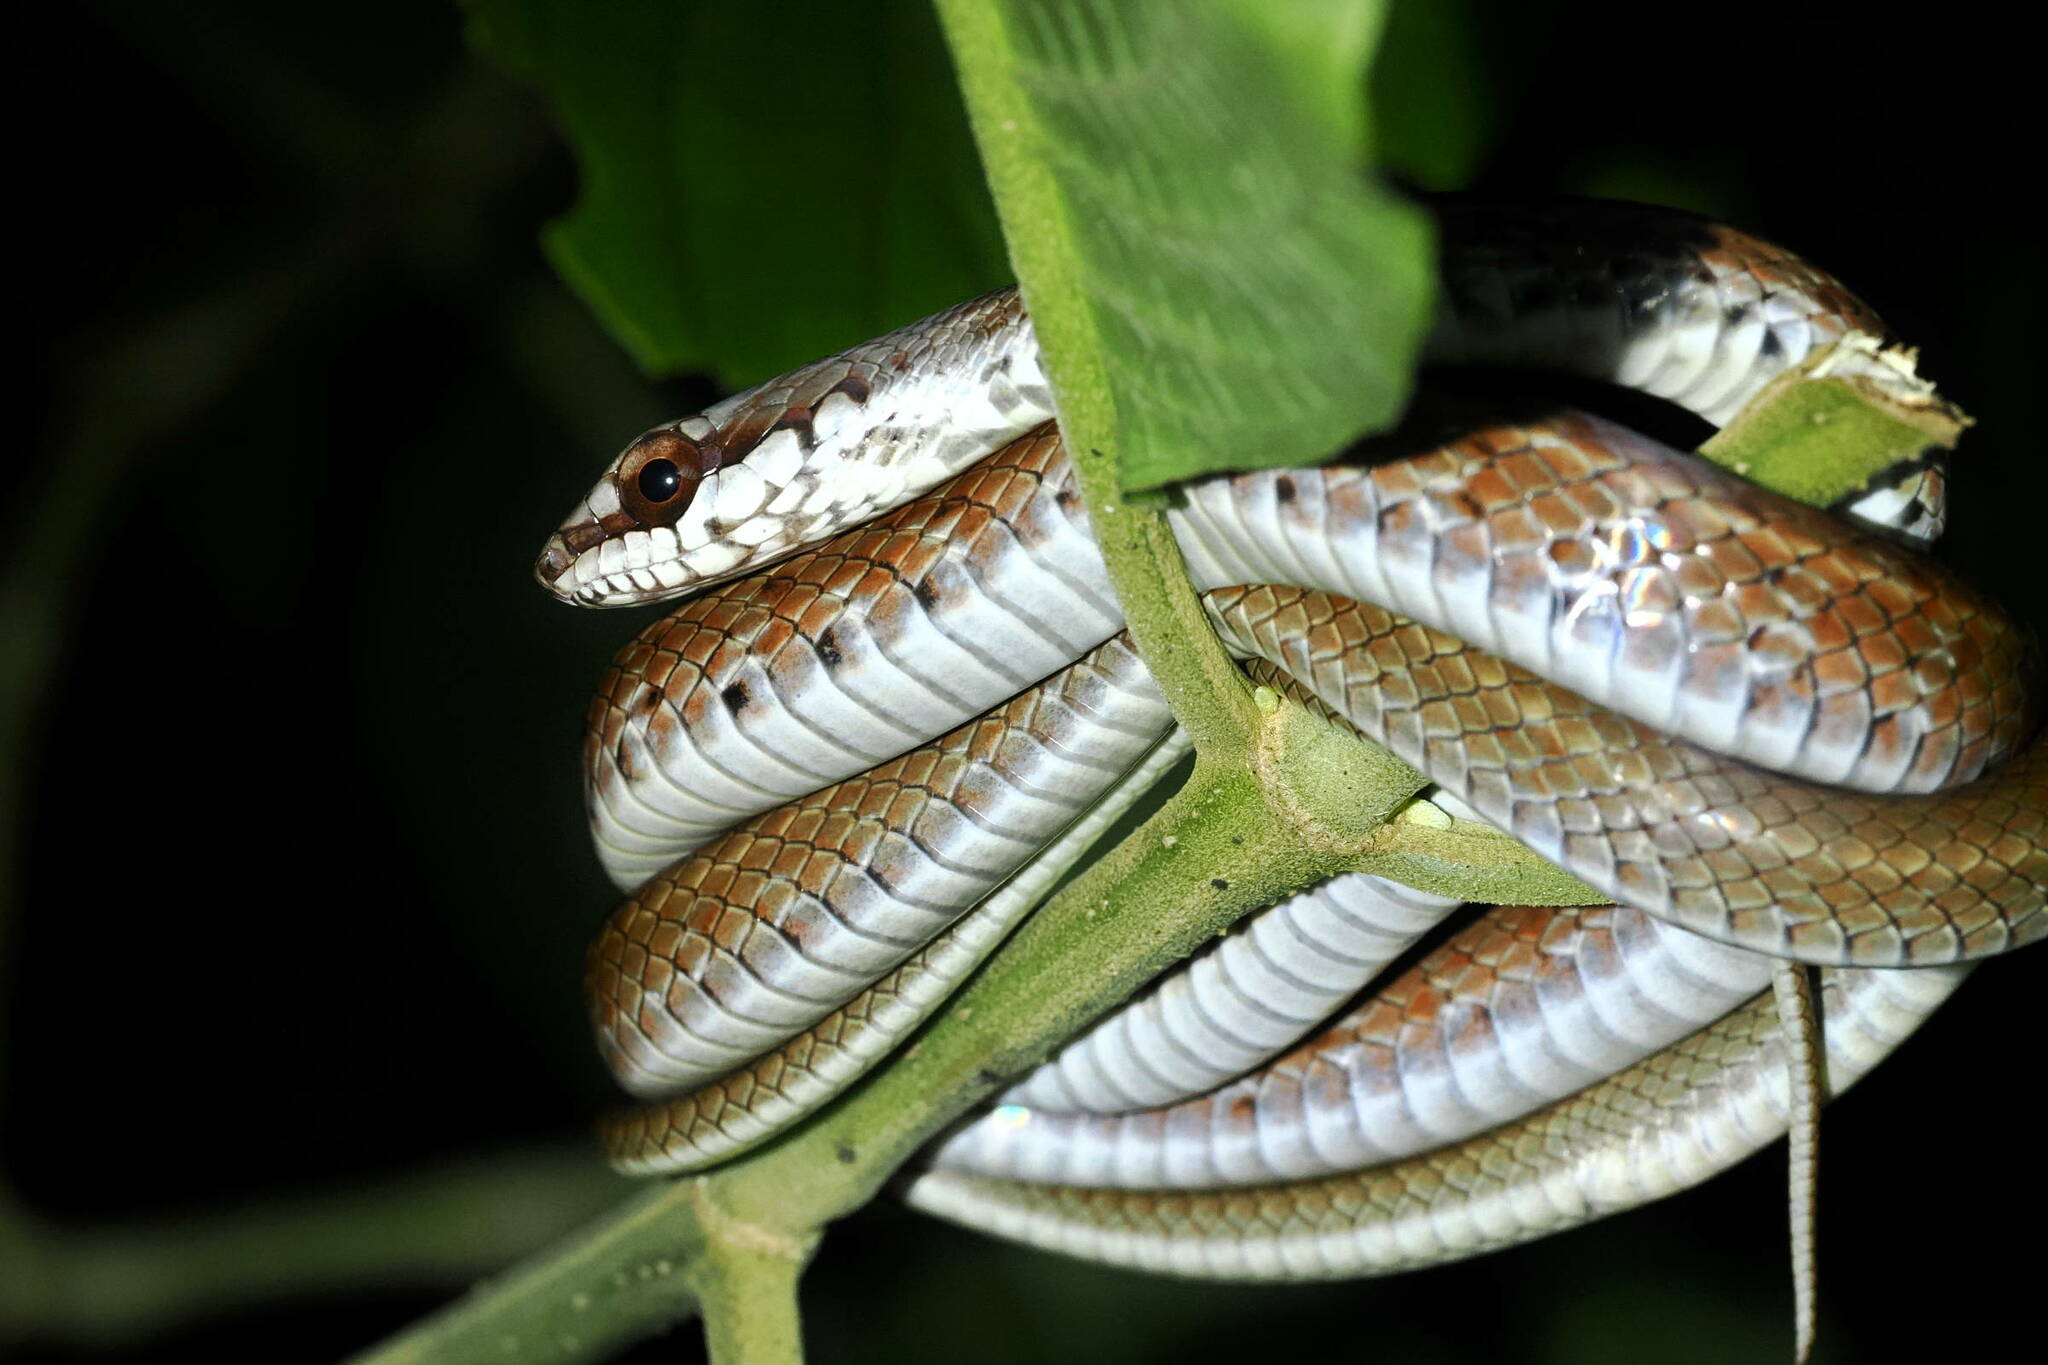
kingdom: Animalia
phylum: Chordata
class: Squamata
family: Colubridae
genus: Mastigodryas
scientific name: Mastigodryas boddaerti
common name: Boddaert's tropical racer
